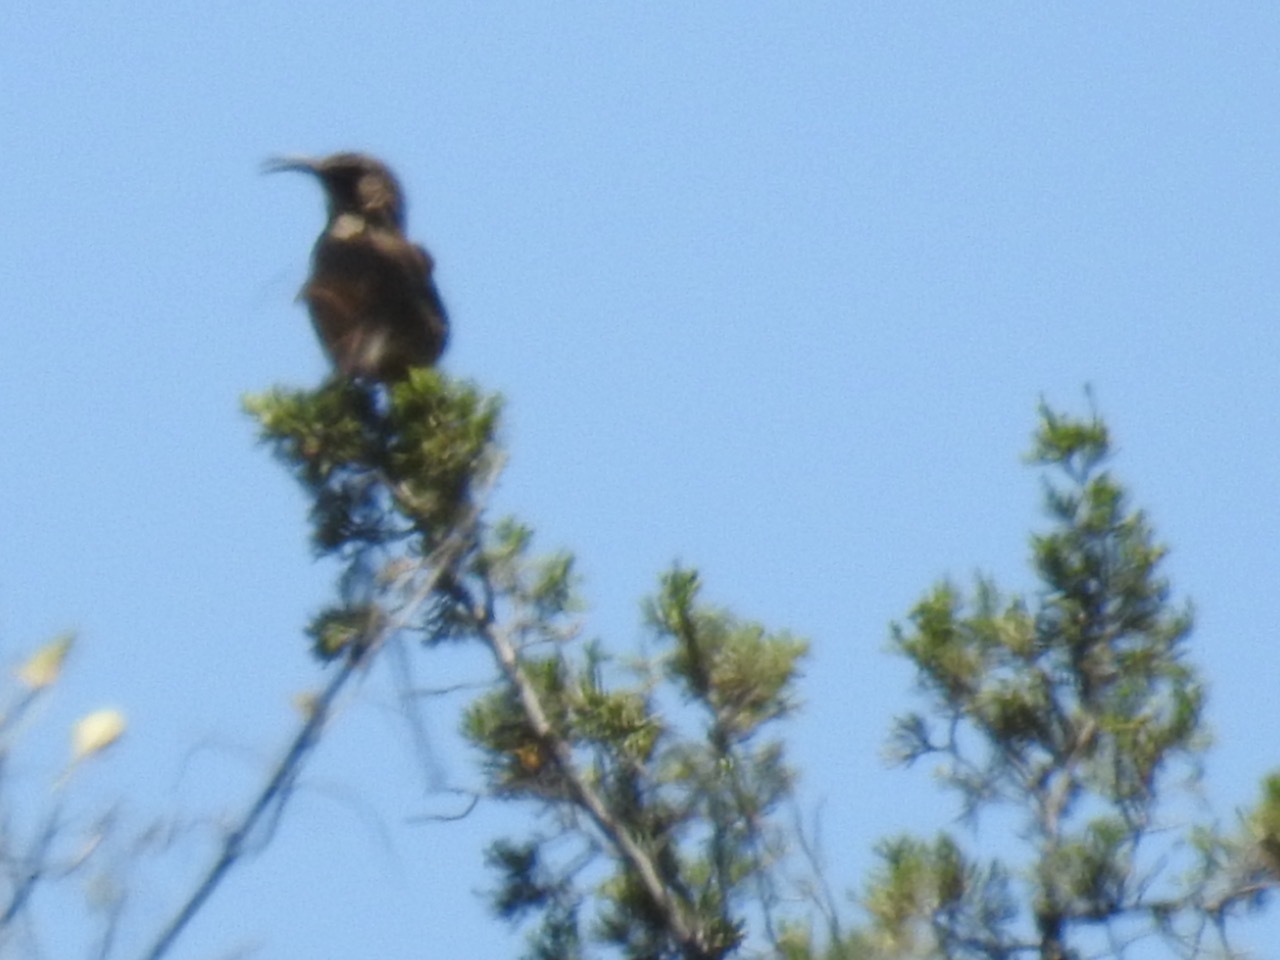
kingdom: Animalia
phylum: Chordata
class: Aves
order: Passeriformes
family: Mimidae
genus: Toxostoma
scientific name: Toxostoma redivivum
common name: California thrasher
